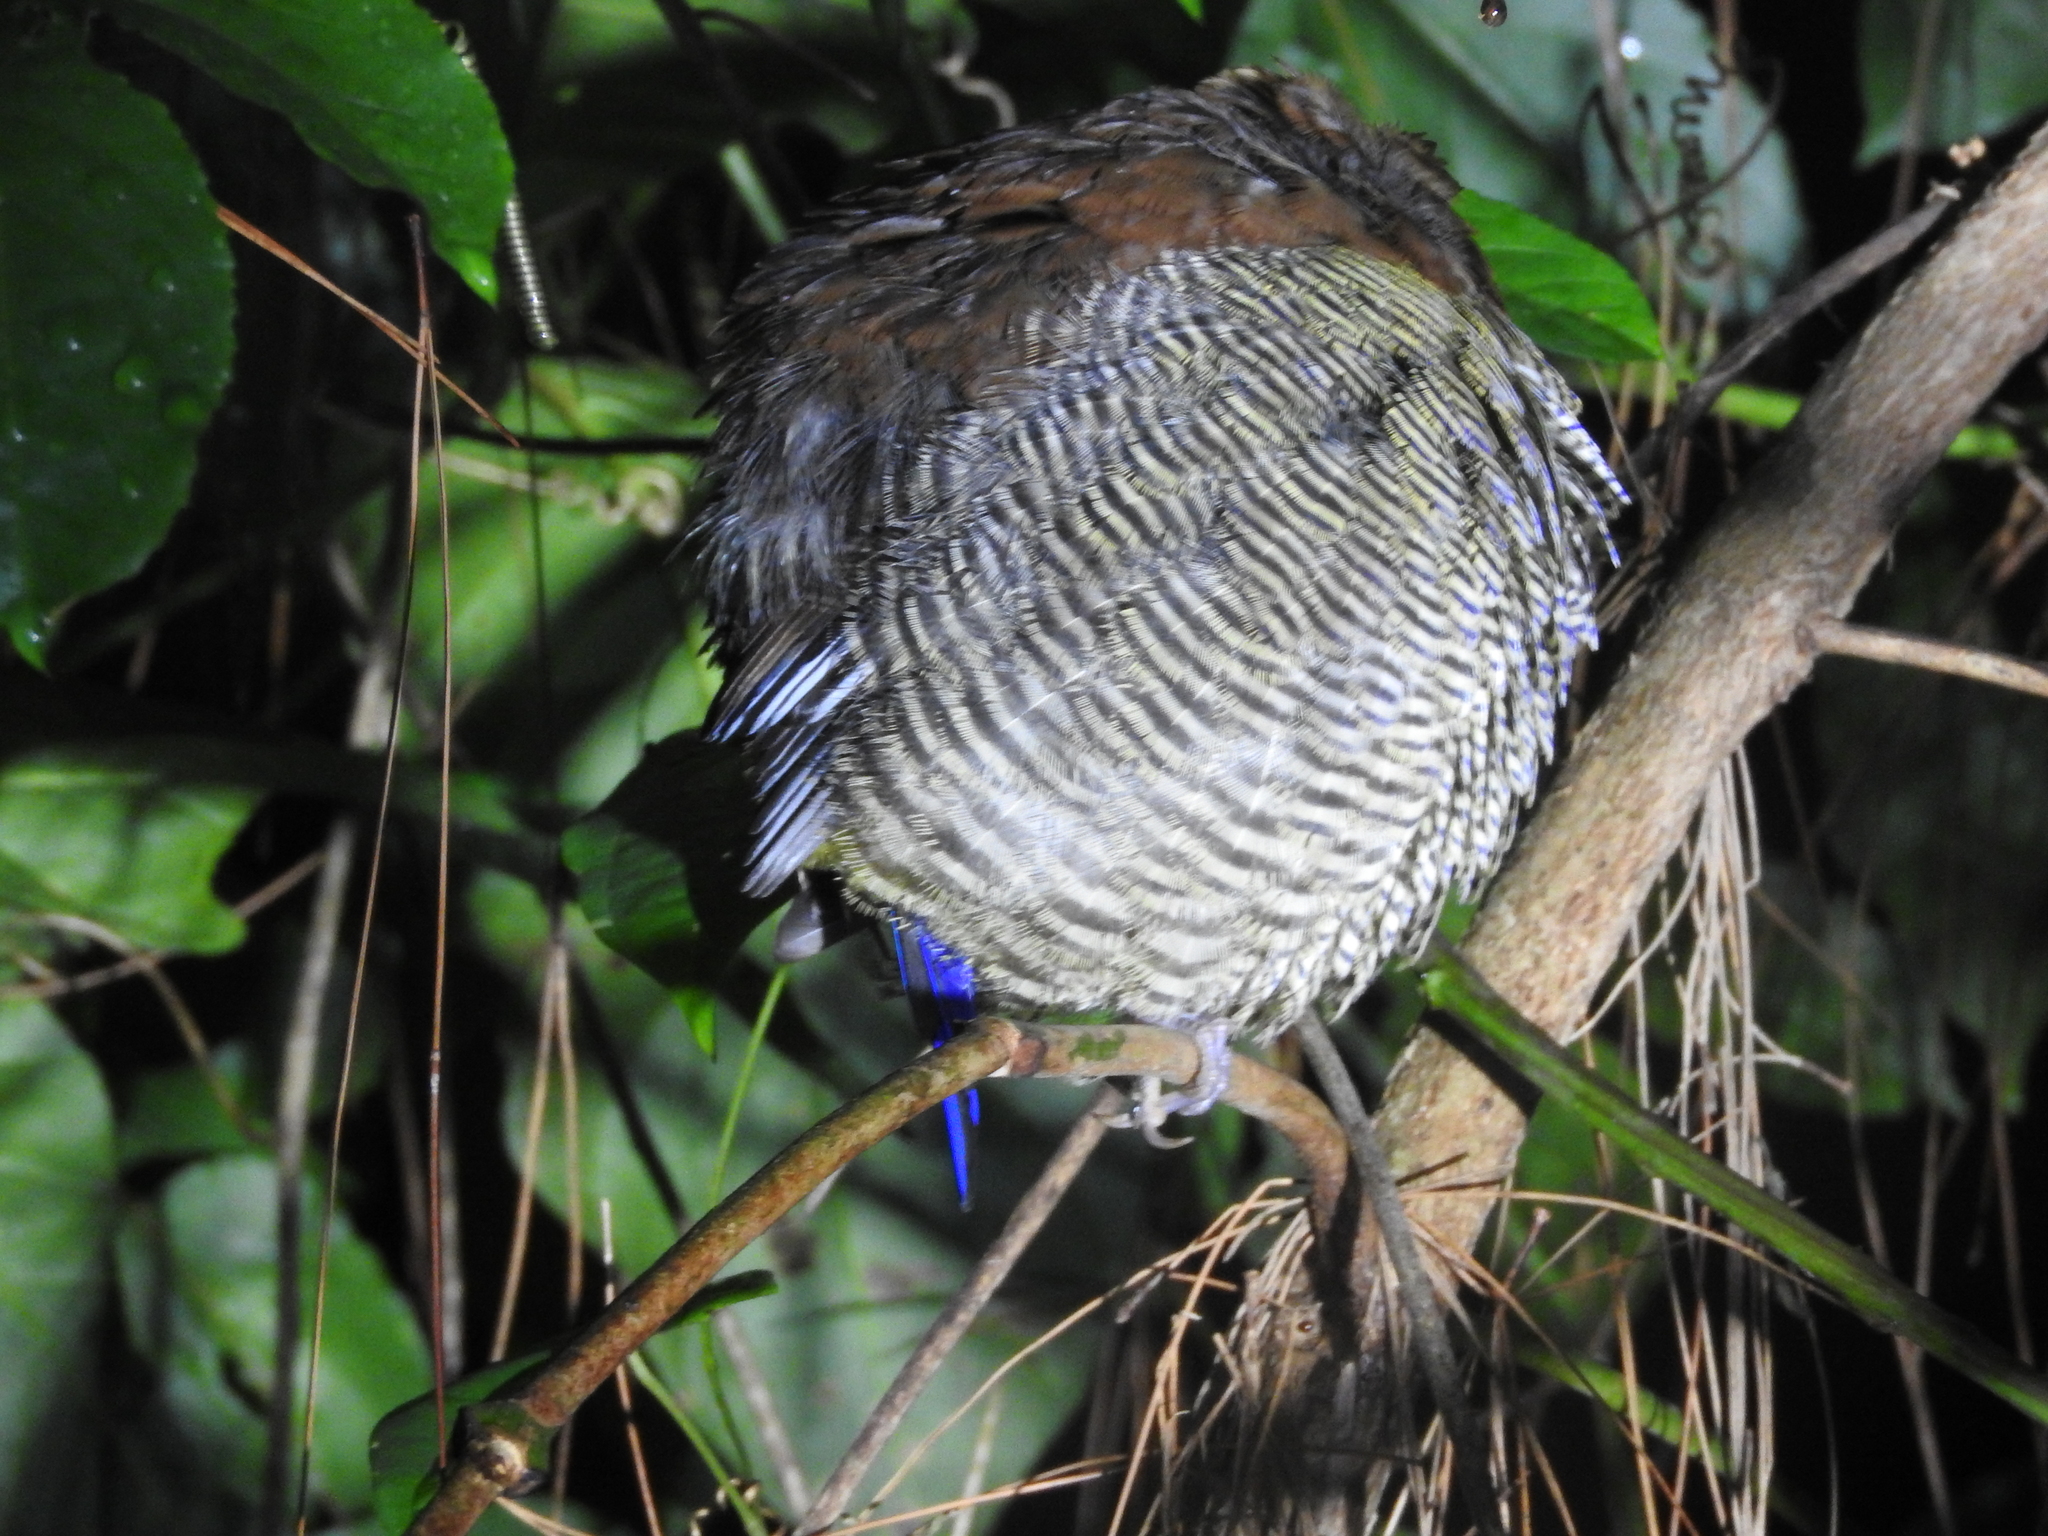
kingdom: Animalia
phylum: Chordata
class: Aves
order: Passeriformes
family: Pittidae
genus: Pitta
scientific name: Pitta guajana
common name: Banded pitta
